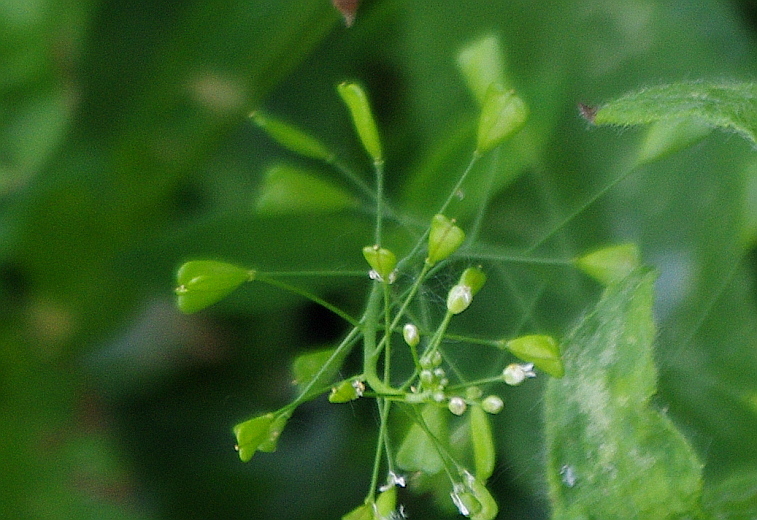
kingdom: Plantae
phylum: Tracheophyta
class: Magnoliopsida
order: Brassicales
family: Brassicaceae
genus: Capsella
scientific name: Capsella bursa-pastoris
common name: Shepherd's purse
